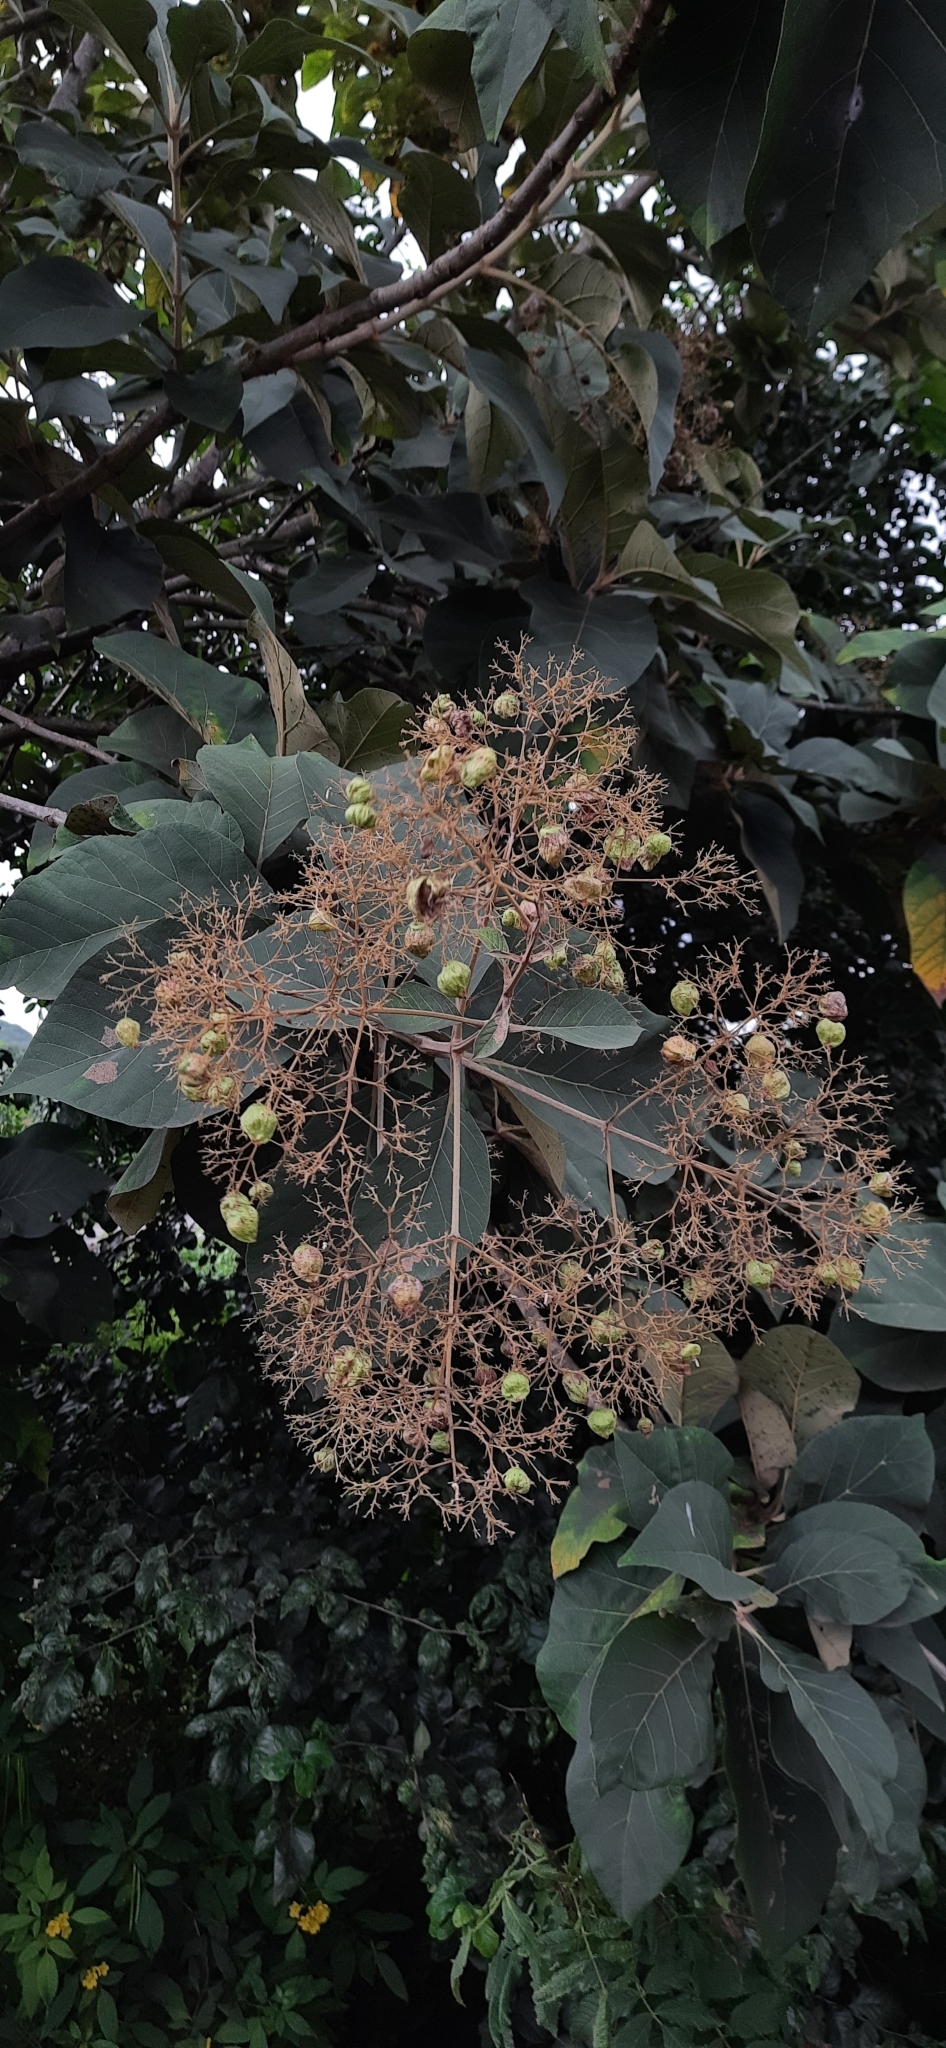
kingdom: Plantae
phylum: Tracheophyta
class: Magnoliopsida
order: Lamiales
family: Lamiaceae
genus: Tectona
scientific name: Tectona grandis
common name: Teak
